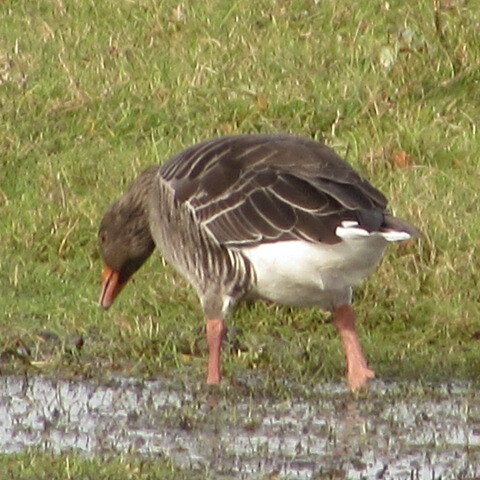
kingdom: Animalia
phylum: Chordata
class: Aves
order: Anseriformes
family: Anatidae
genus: Anser
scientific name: Anser anser
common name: Greylag goose
